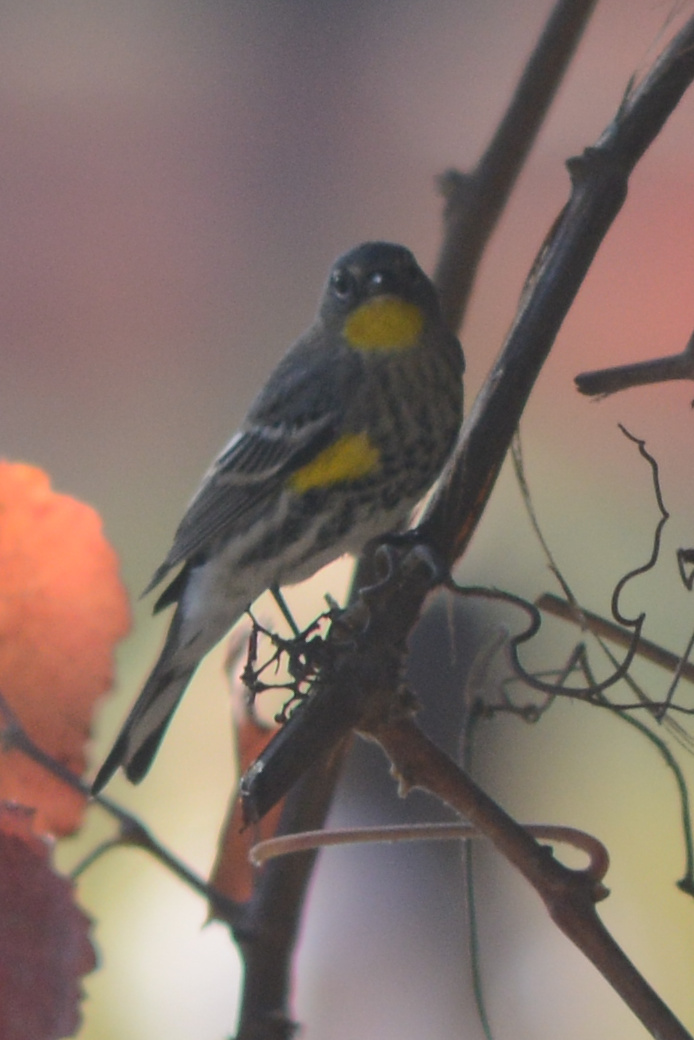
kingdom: Animalia
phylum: Chordata
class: Aves
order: Passeriformes
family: Parulidae
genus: Setophaga
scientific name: Setophaga auduboni
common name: Audubon's warbler
